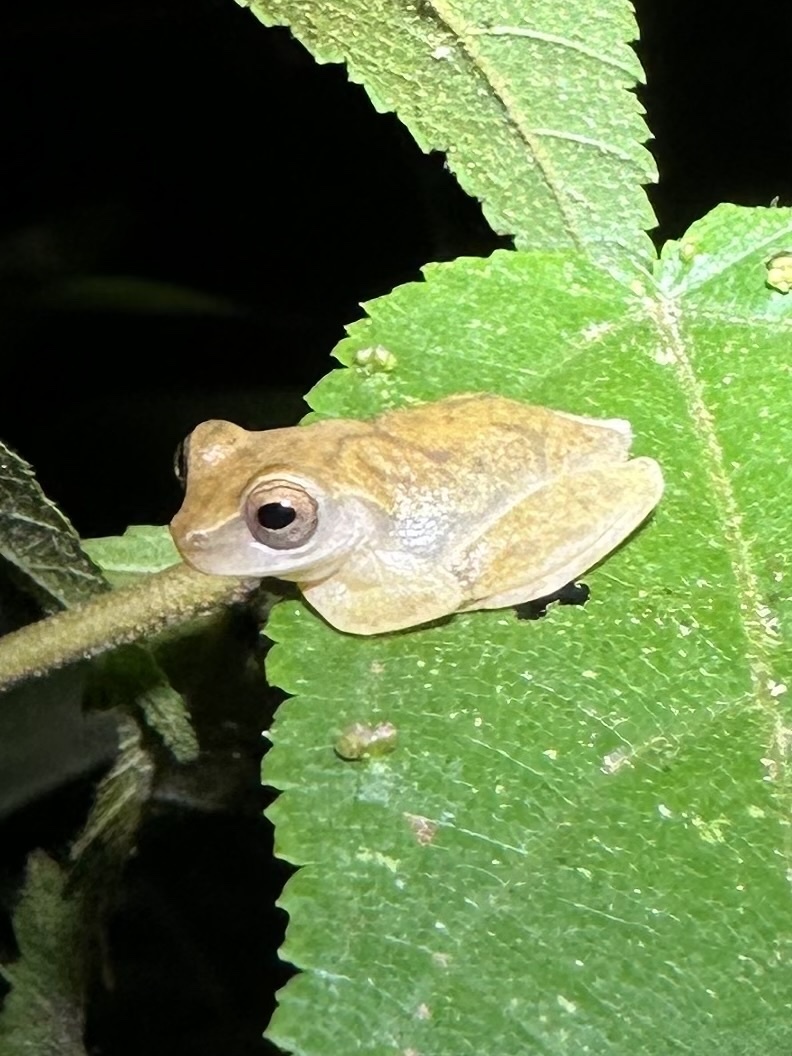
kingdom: Animalia
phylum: Chordata
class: Amphibia
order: Anura
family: Hylidae
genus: Dendropsophus
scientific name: Dendropsophus microcephalus
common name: Small-headed treefrog
